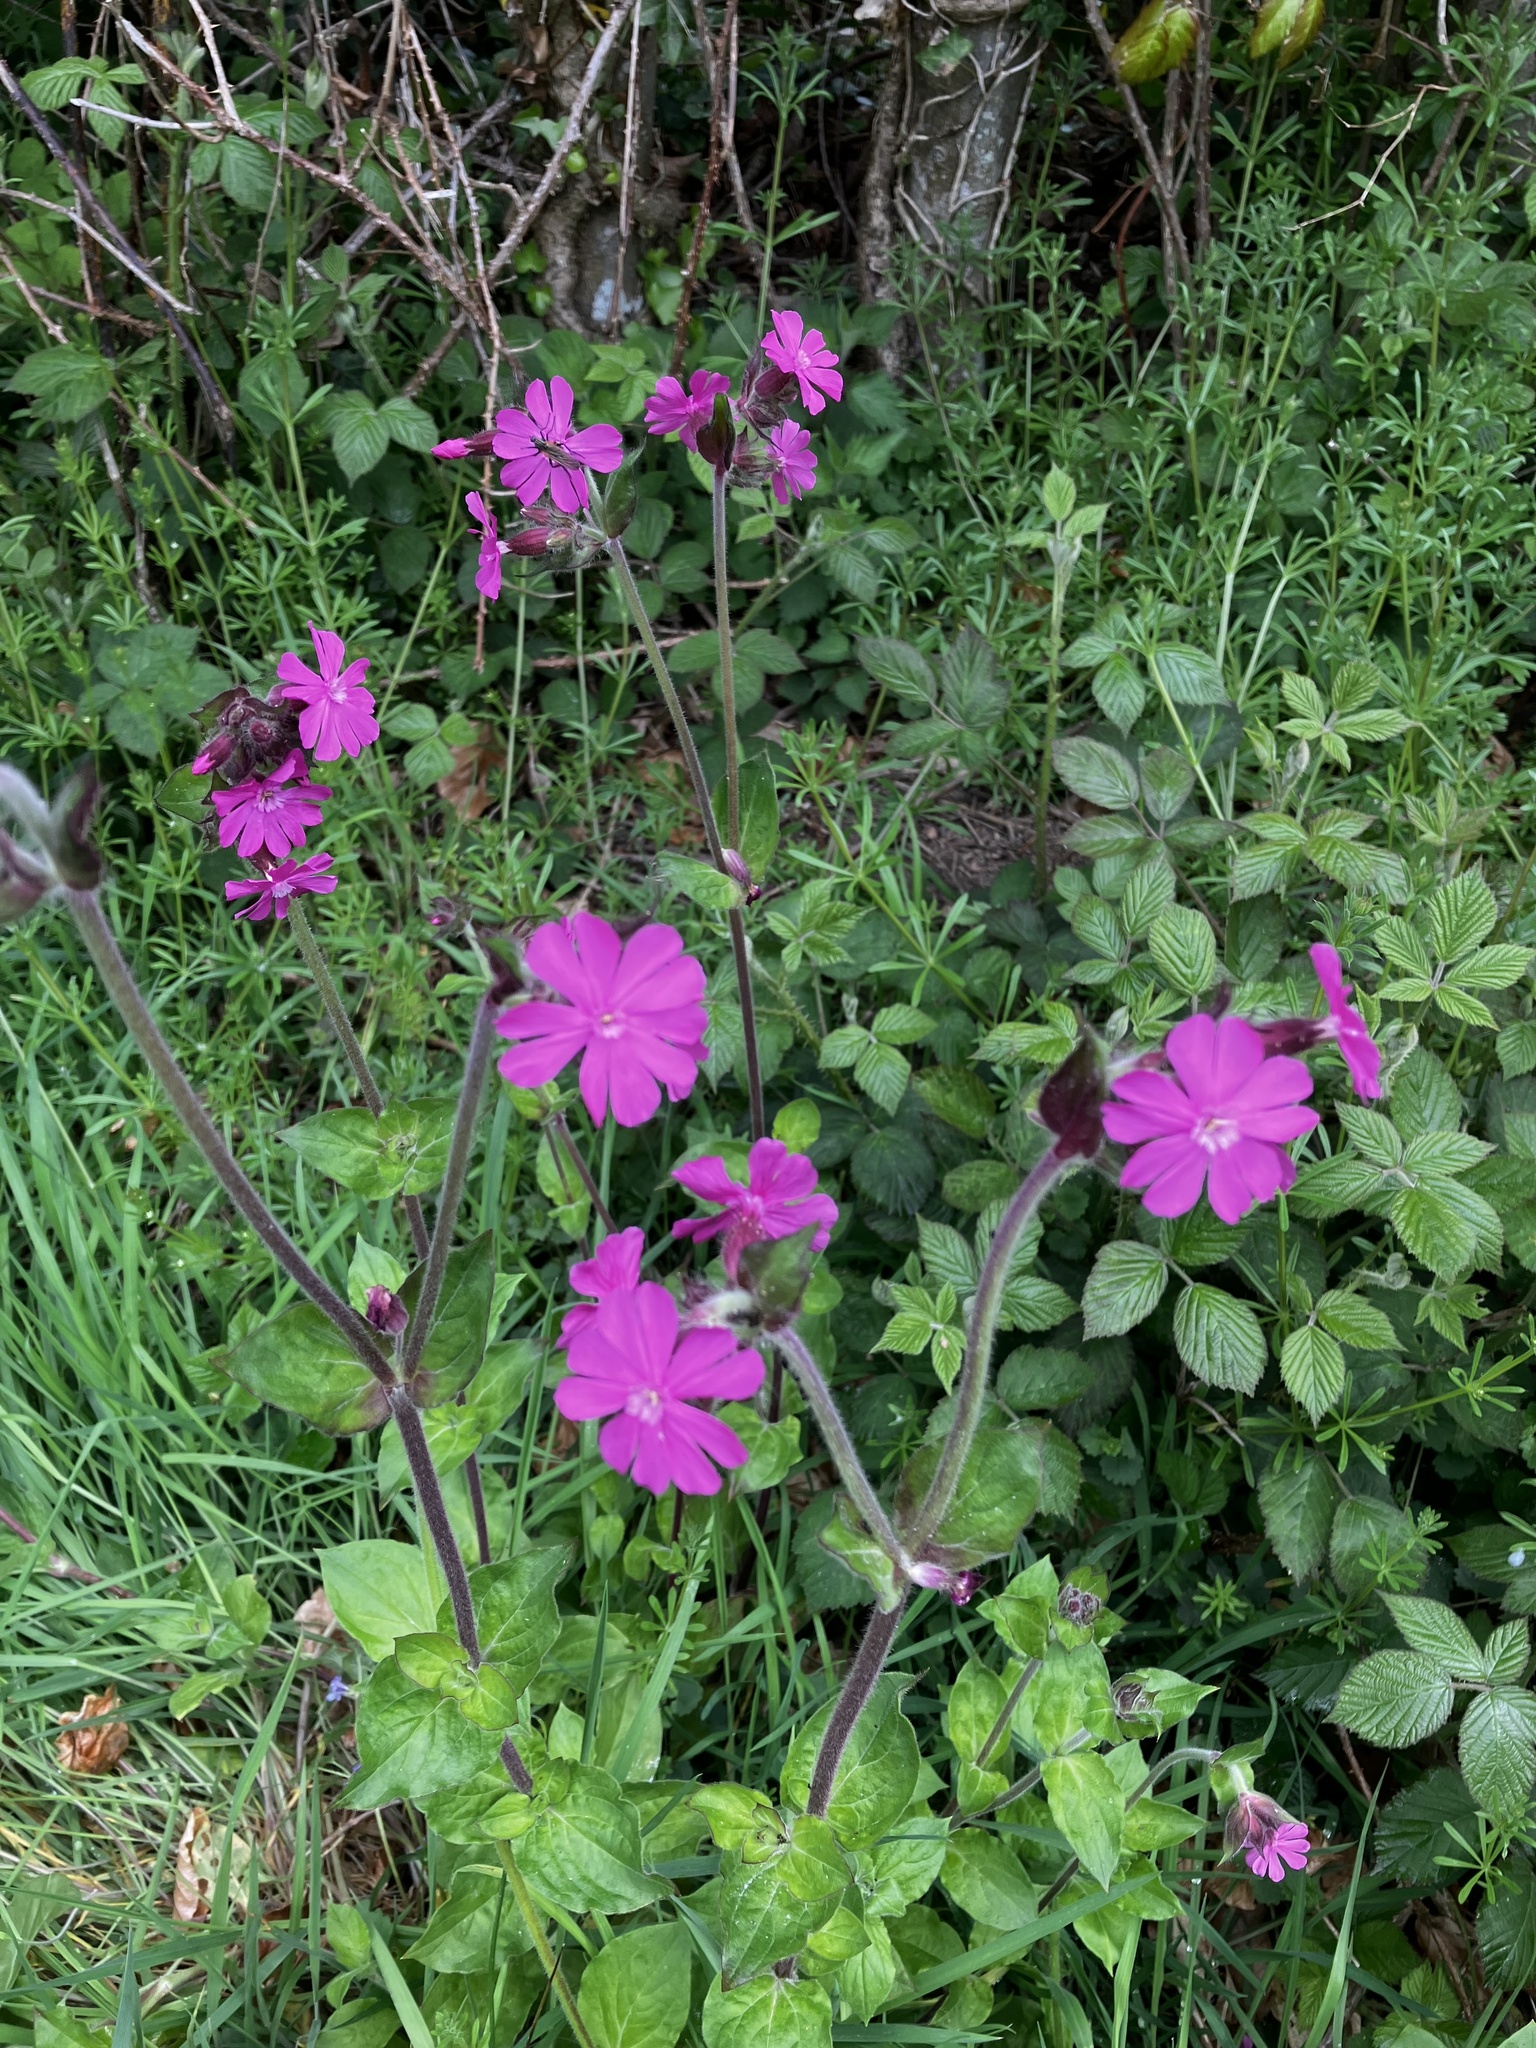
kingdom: Plantae
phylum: Tracheophyta
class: Magnoliopsida
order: Caryophyllales
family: Caryophyllaceae
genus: Silene
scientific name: Silene dioica
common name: Red campion
